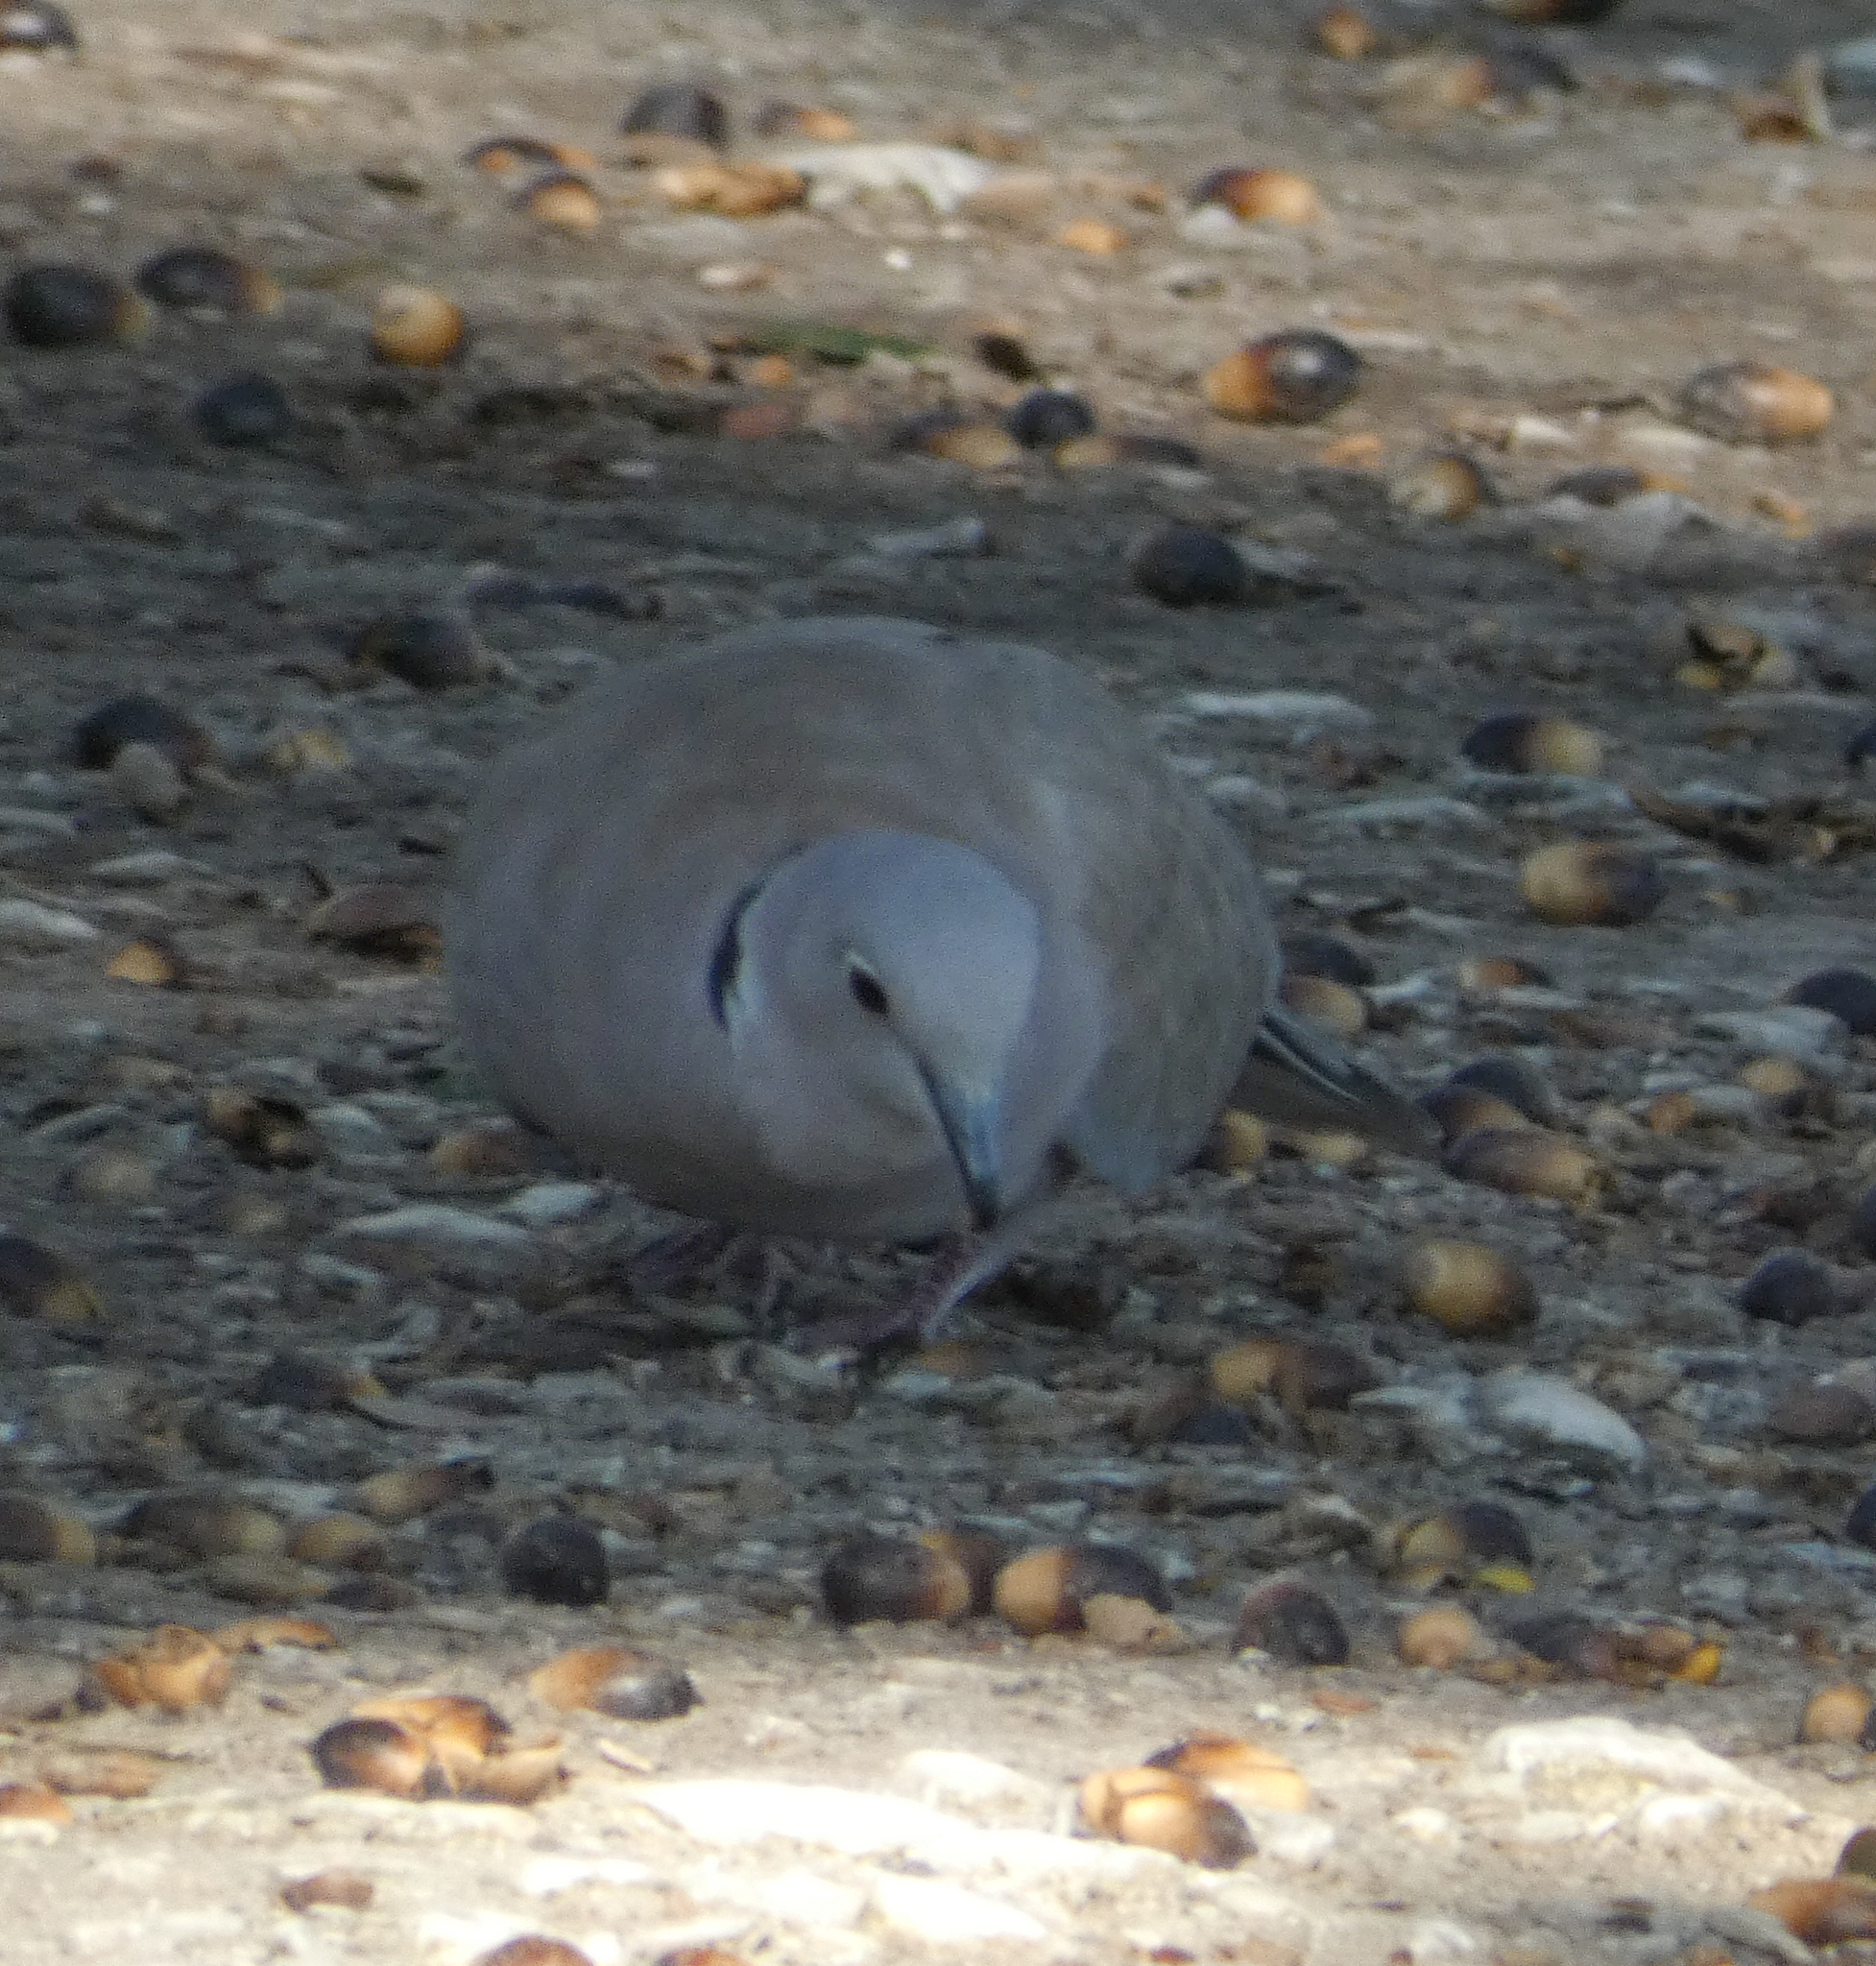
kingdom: Animalia
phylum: Chordata
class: Aves
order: Columbiformes
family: Columbidae
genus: Streptopelia
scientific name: Streptopelia decaocto
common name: Eurasian collared dove
